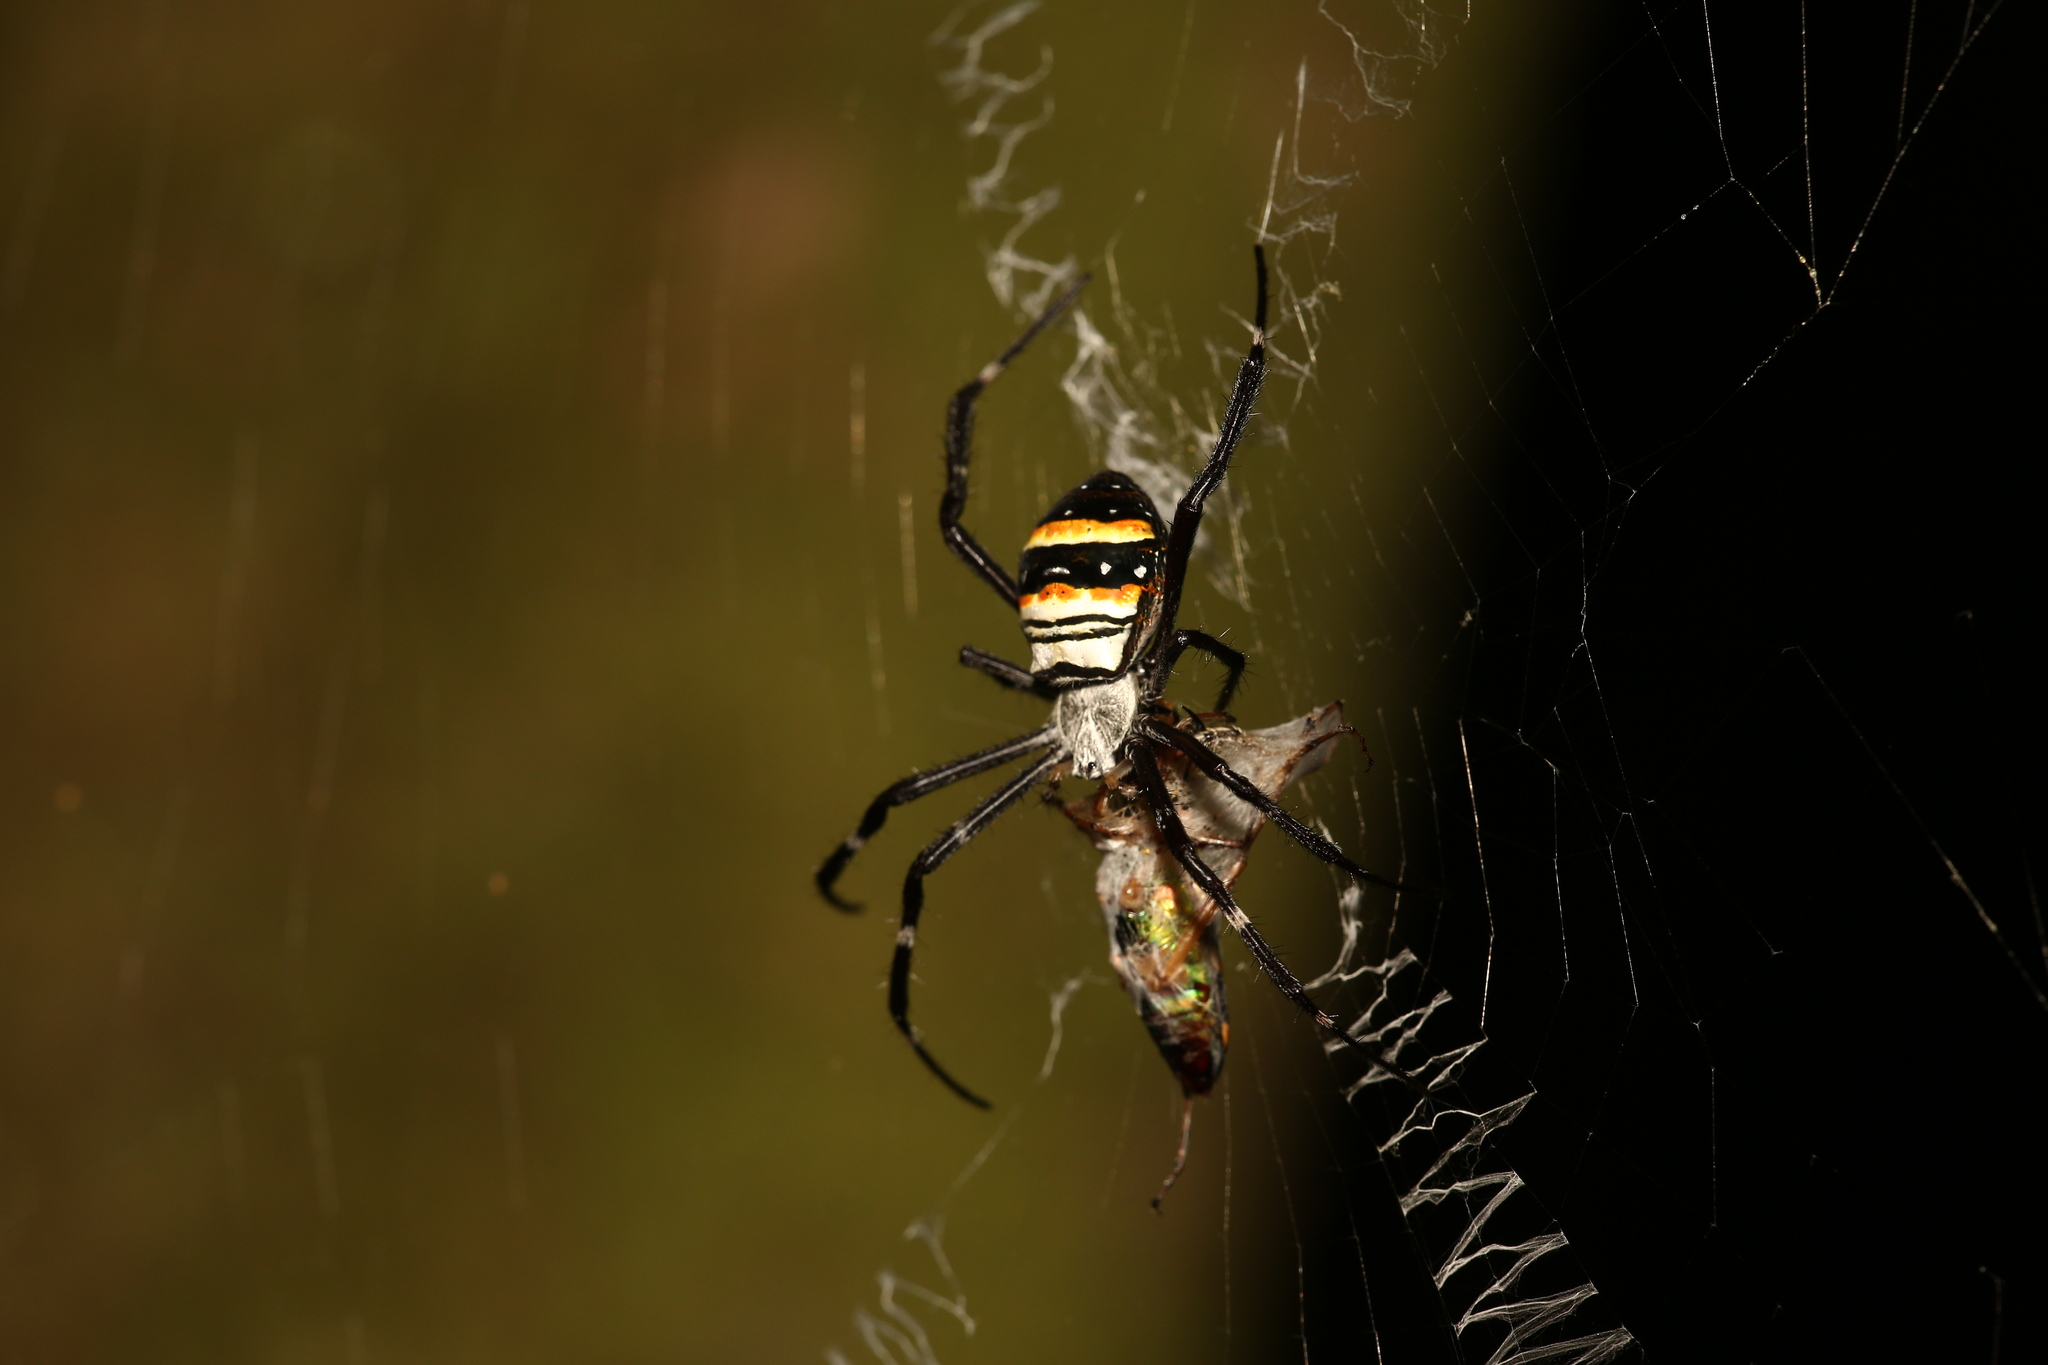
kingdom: Animalia
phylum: Arthropoda
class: Arachnida
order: Araneae
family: Araneidae
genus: Argiope
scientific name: Argiope caledonia
